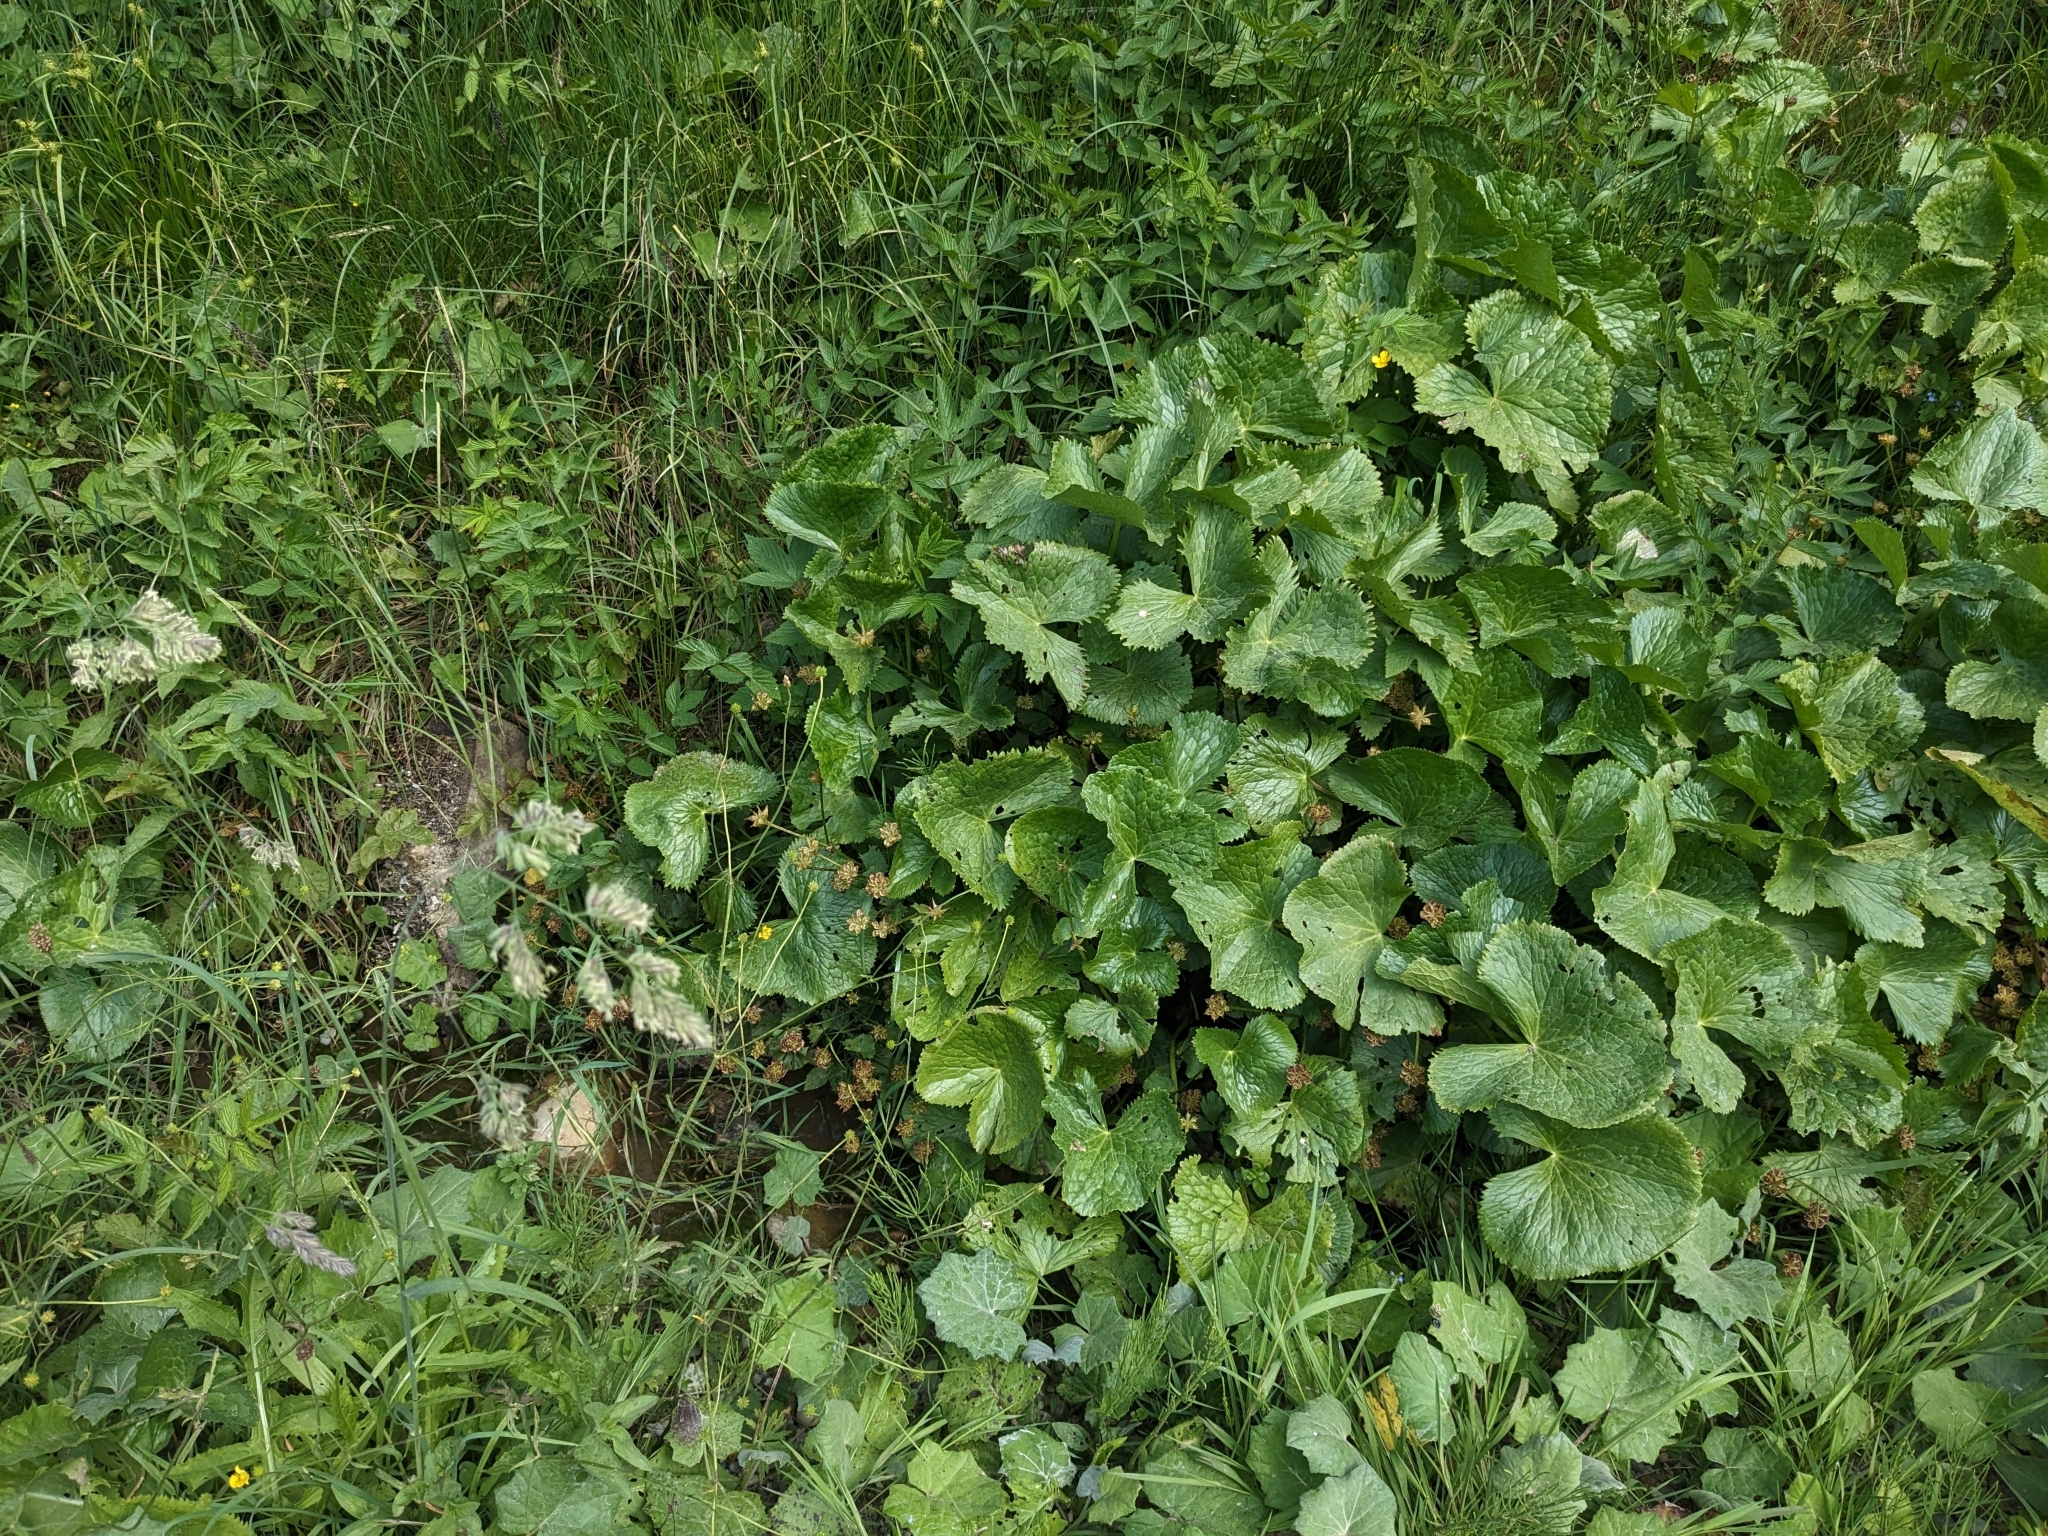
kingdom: Plantae
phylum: Tracheophyta
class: Magnoliopsida
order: Ranunculales
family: Ranunculaceae
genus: Caltha
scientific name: Caltha palustris
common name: Marsh marigold
